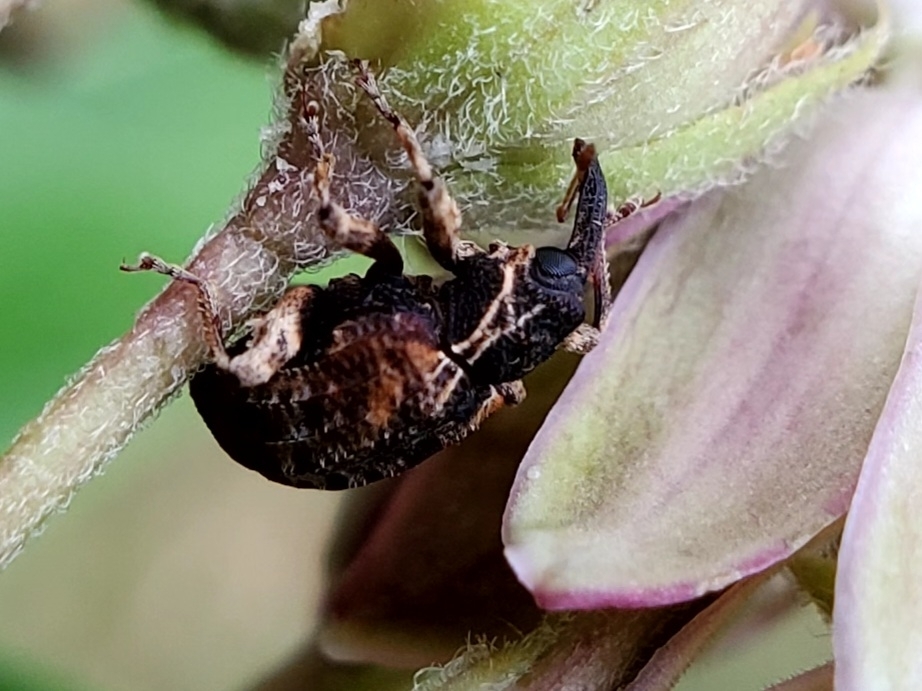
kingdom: Animalia
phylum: Arthropoda
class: Insecta
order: Coleoptera
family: Curculionidae
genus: Conotrachelus
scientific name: Conotrachelus anaglypticus
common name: Cambium curculio
